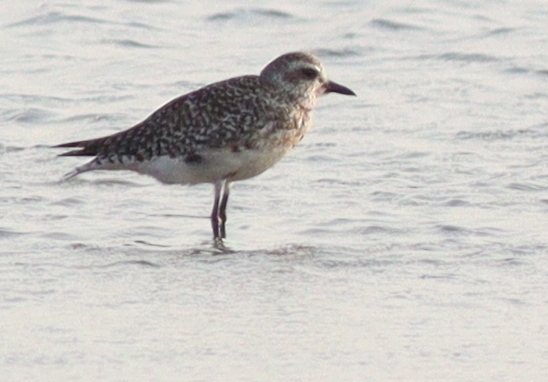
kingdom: Animalia
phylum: Chordata
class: Aves
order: Charadriiformes
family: Charadriidae
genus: Pluvialis
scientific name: Pluvialis squatarola
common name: Grey plover
